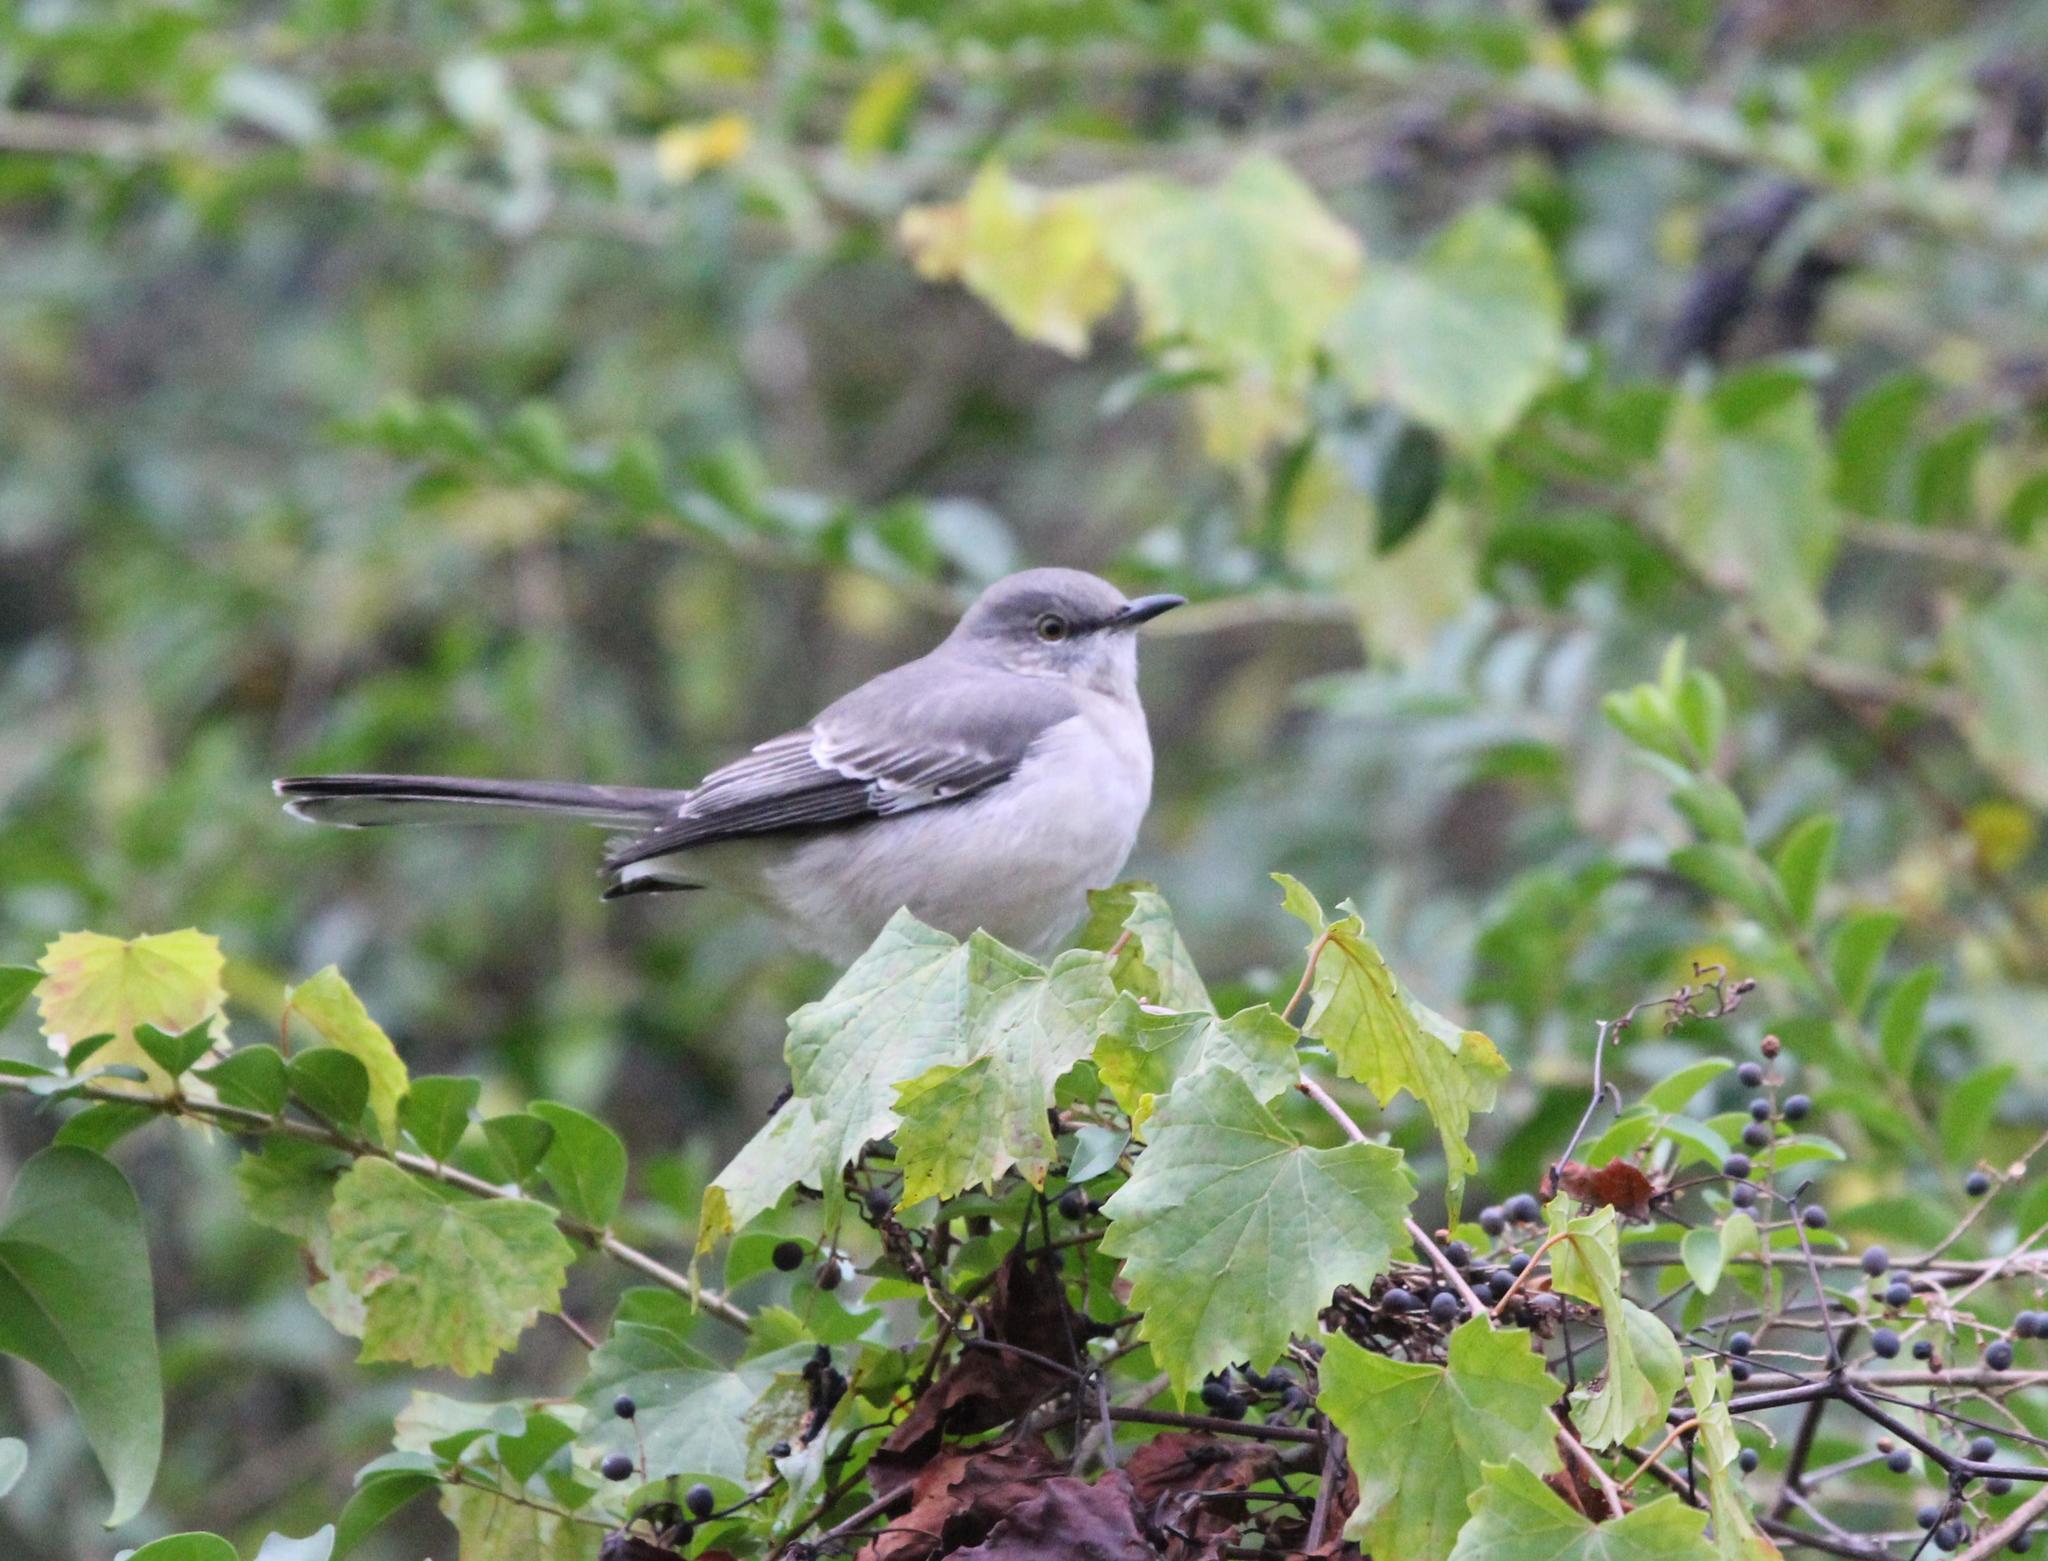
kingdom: Animalia
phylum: Chordata
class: Aves
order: Passeriformes
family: Mimidae
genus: Mimus
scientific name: Mimus polyglottos
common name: Northern mockingbird
